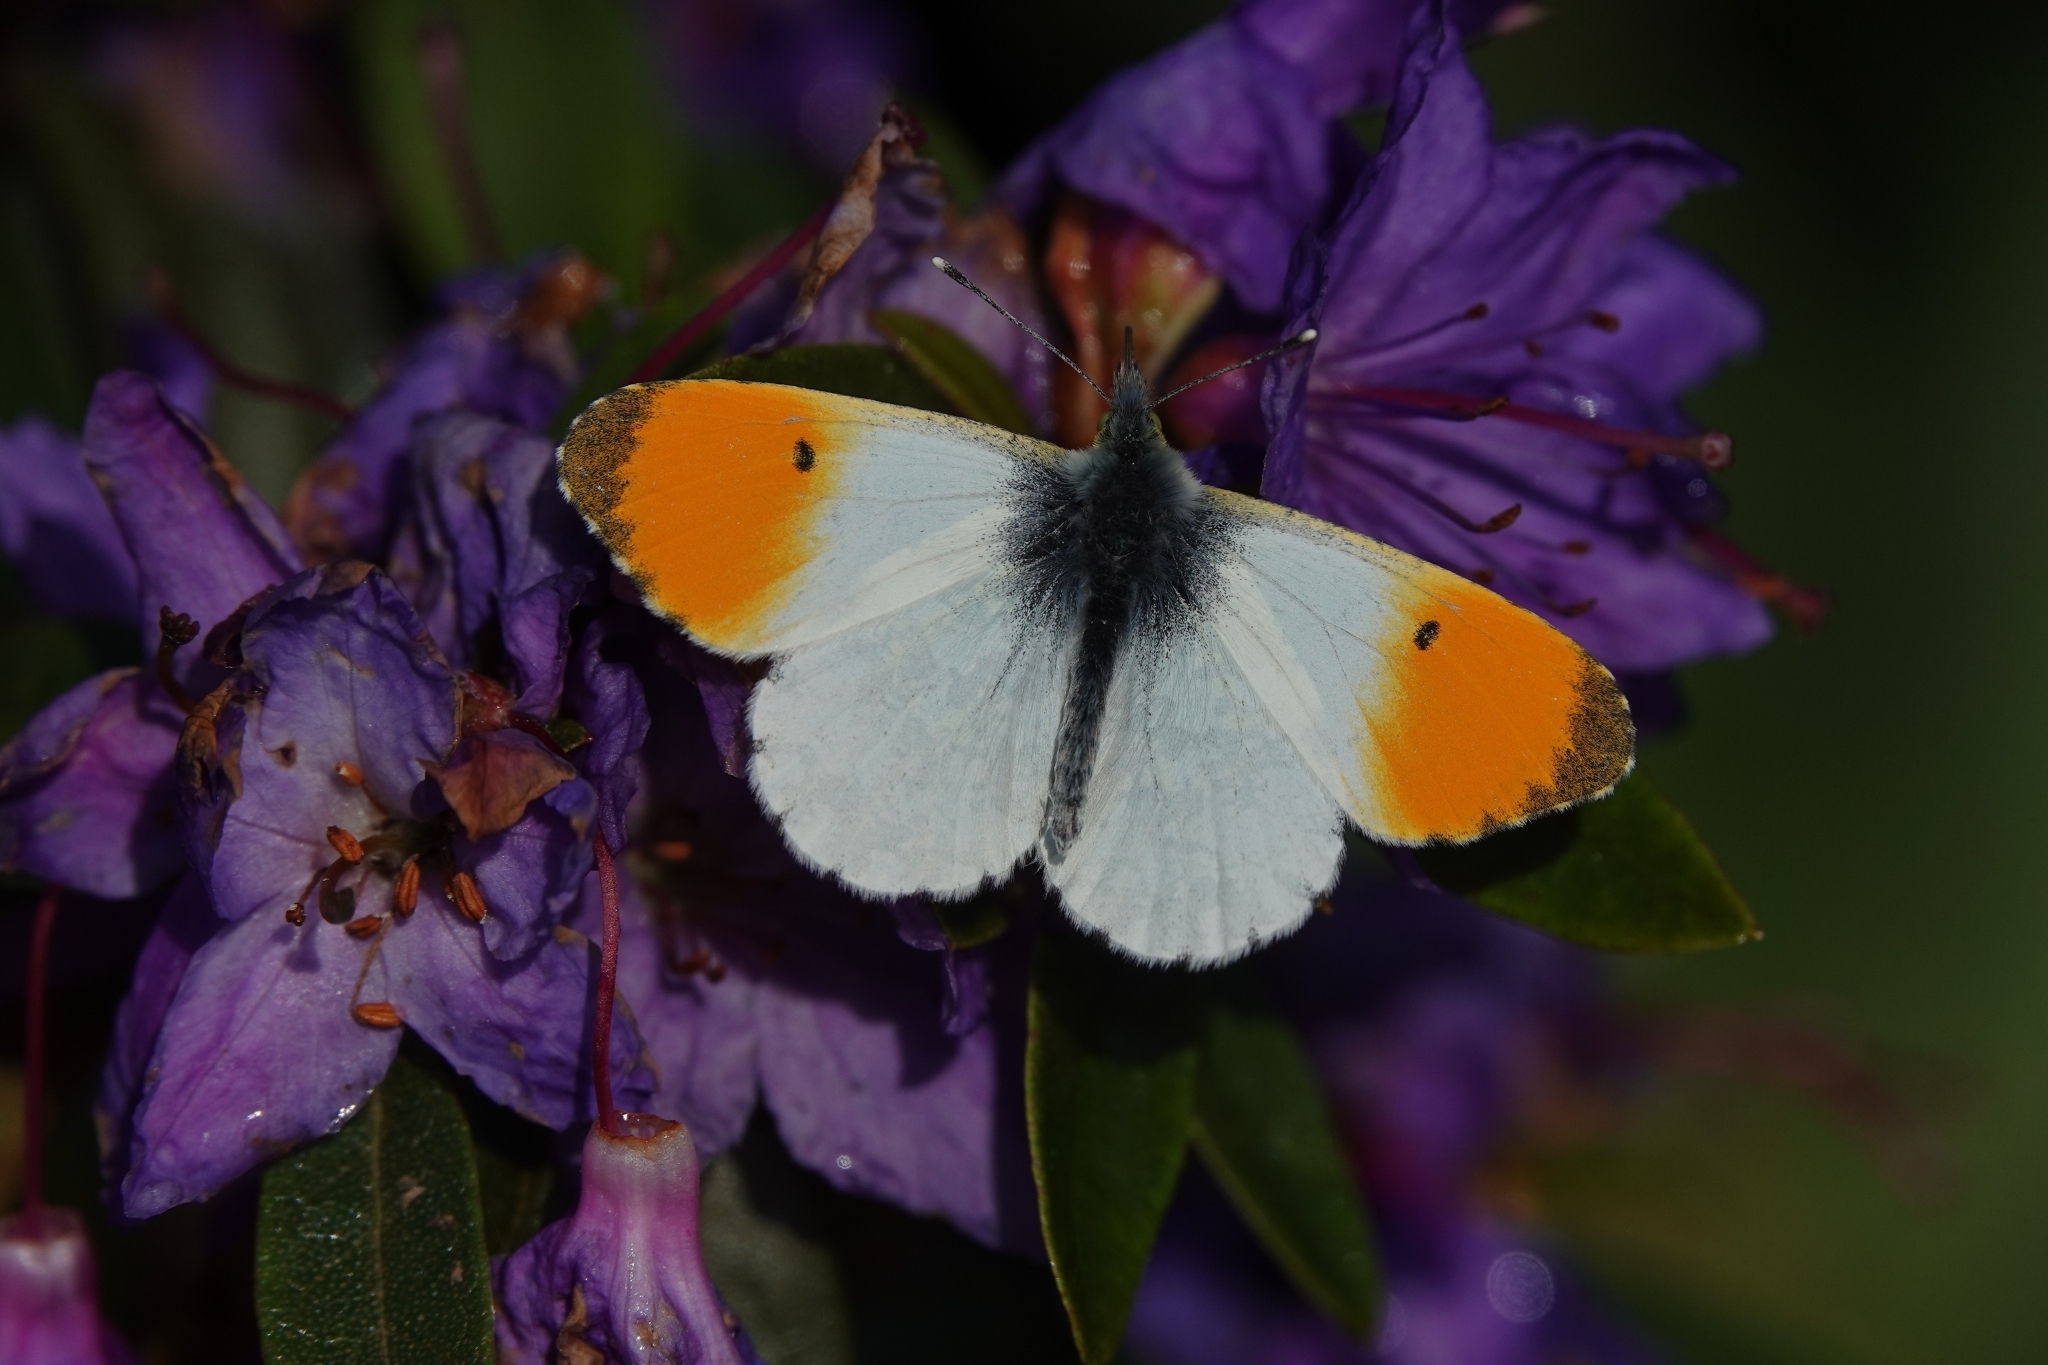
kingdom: Animalia
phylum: Arthropoda
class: Insecta
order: Lepidoptera
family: Pieridae
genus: Anthocharis
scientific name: Anthocharis cardamines
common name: Orange-tip
